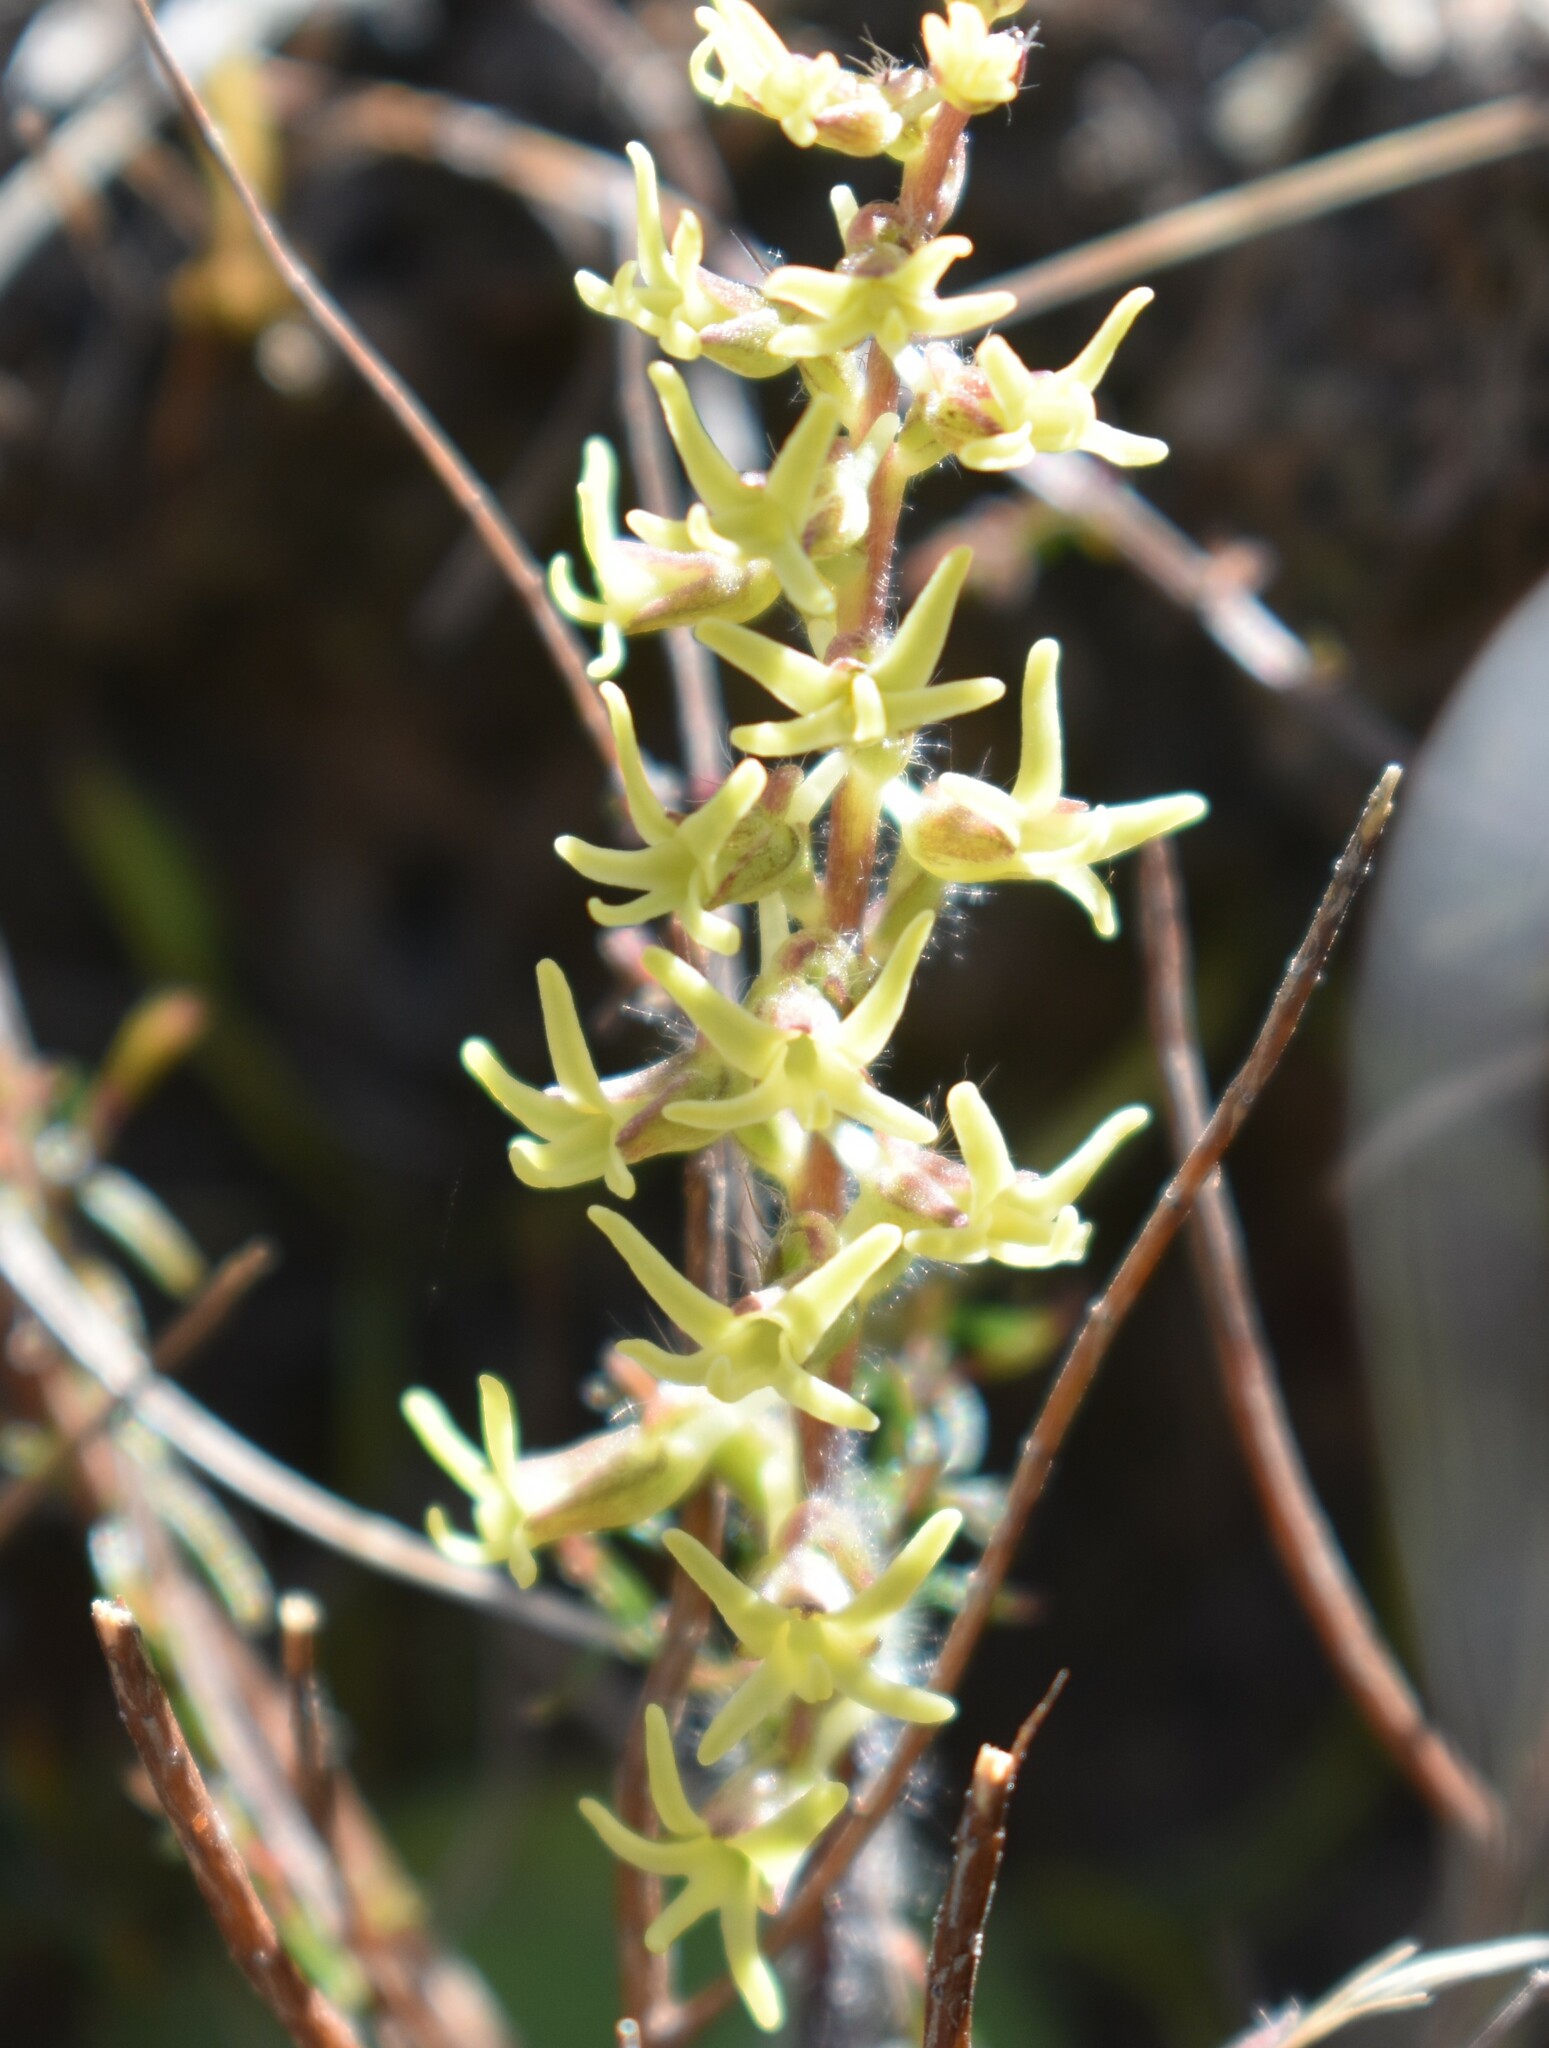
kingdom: Plantae
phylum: Tracheophyta
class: Liliopsida
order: Asparagales
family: Orchidaceae
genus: Holothrix
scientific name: Holothrix villosa
